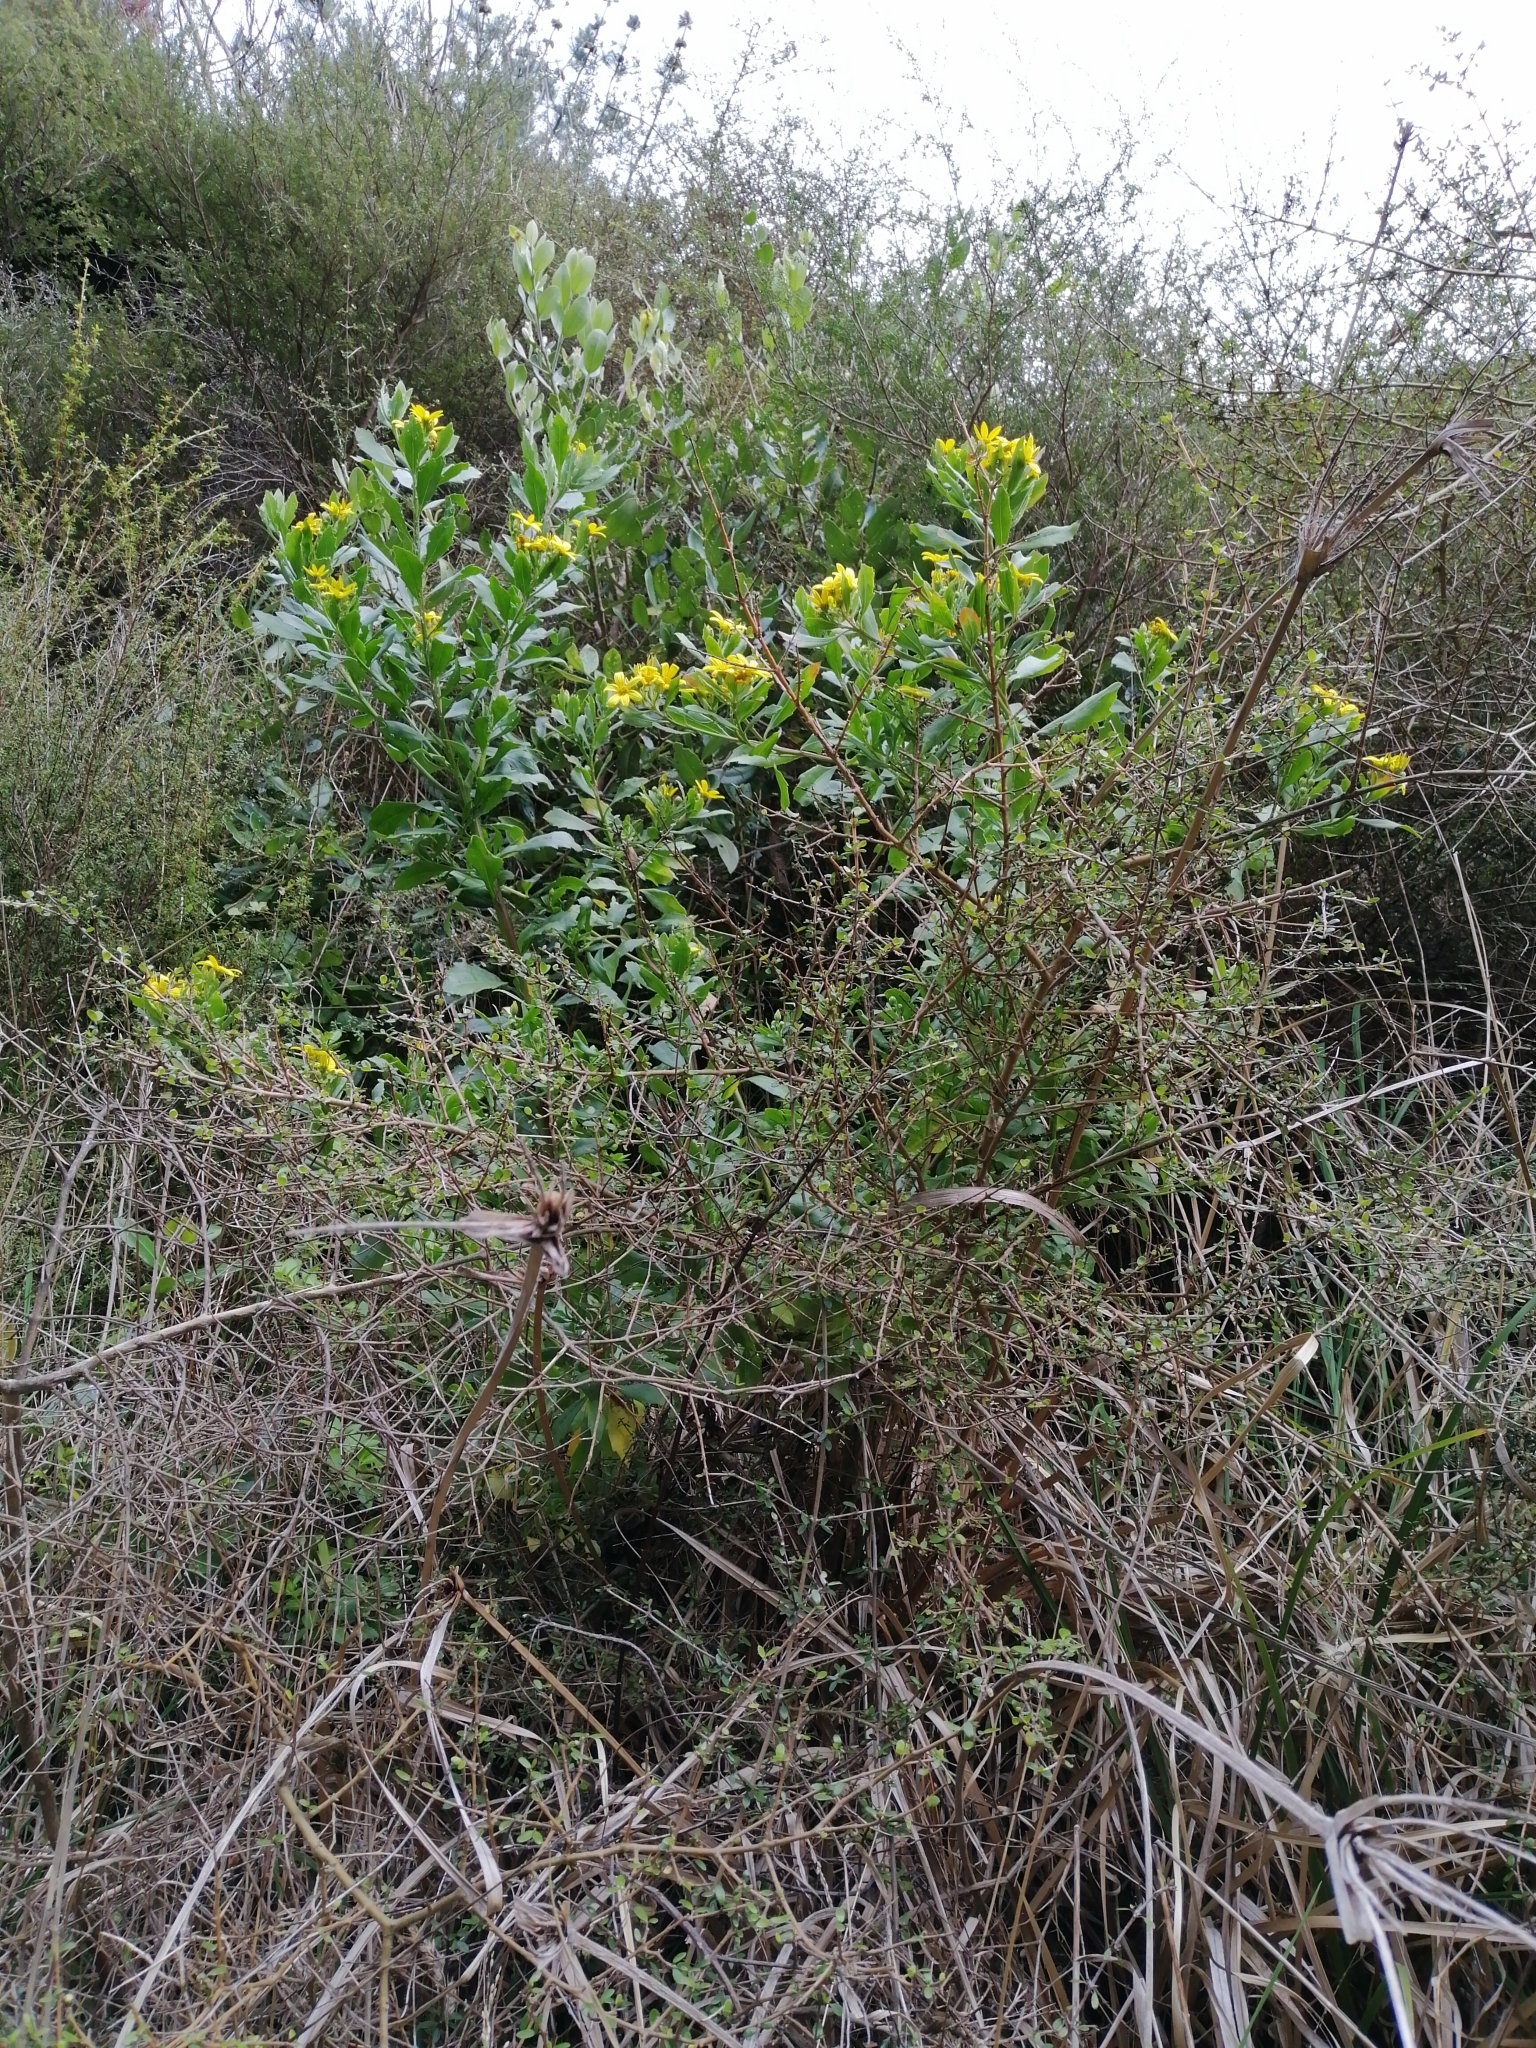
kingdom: Plantae
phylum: Tracheophyta
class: Magnoliopsida
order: Asterales
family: Asteraceae
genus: Osteospermum
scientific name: Osteospermum moniliferum
